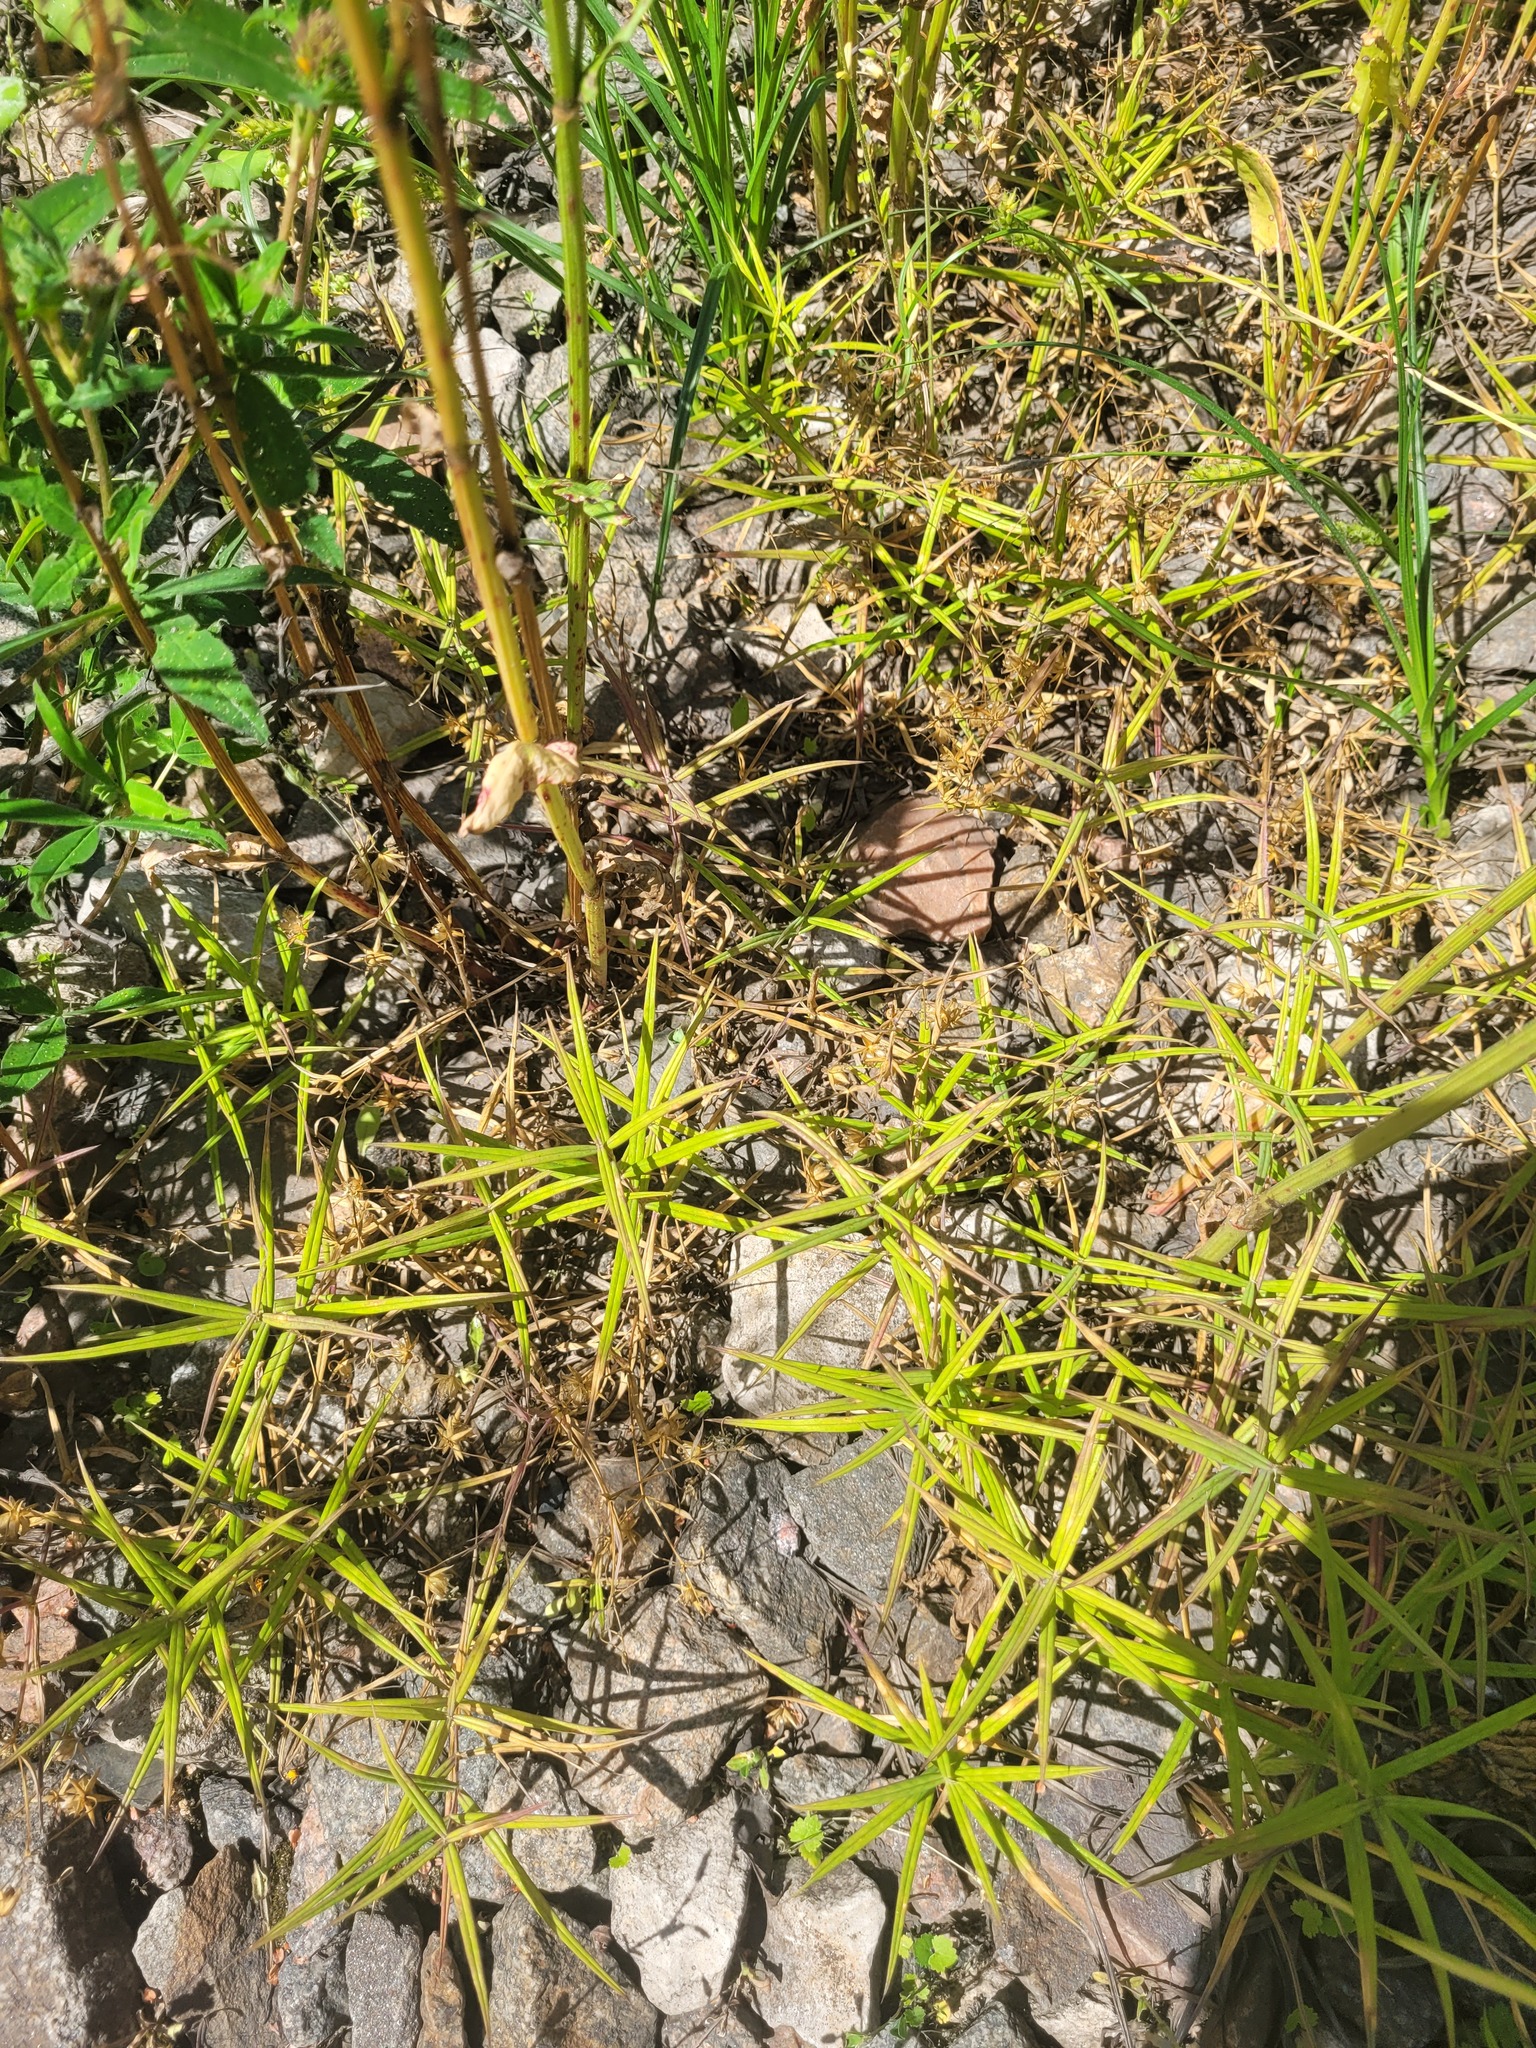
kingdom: Plantae
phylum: Tracheophyta
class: Magnoliopsida
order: Caryophyllales
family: Caryophyllaceae
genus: Rabelera
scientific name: Rabelera holostea
